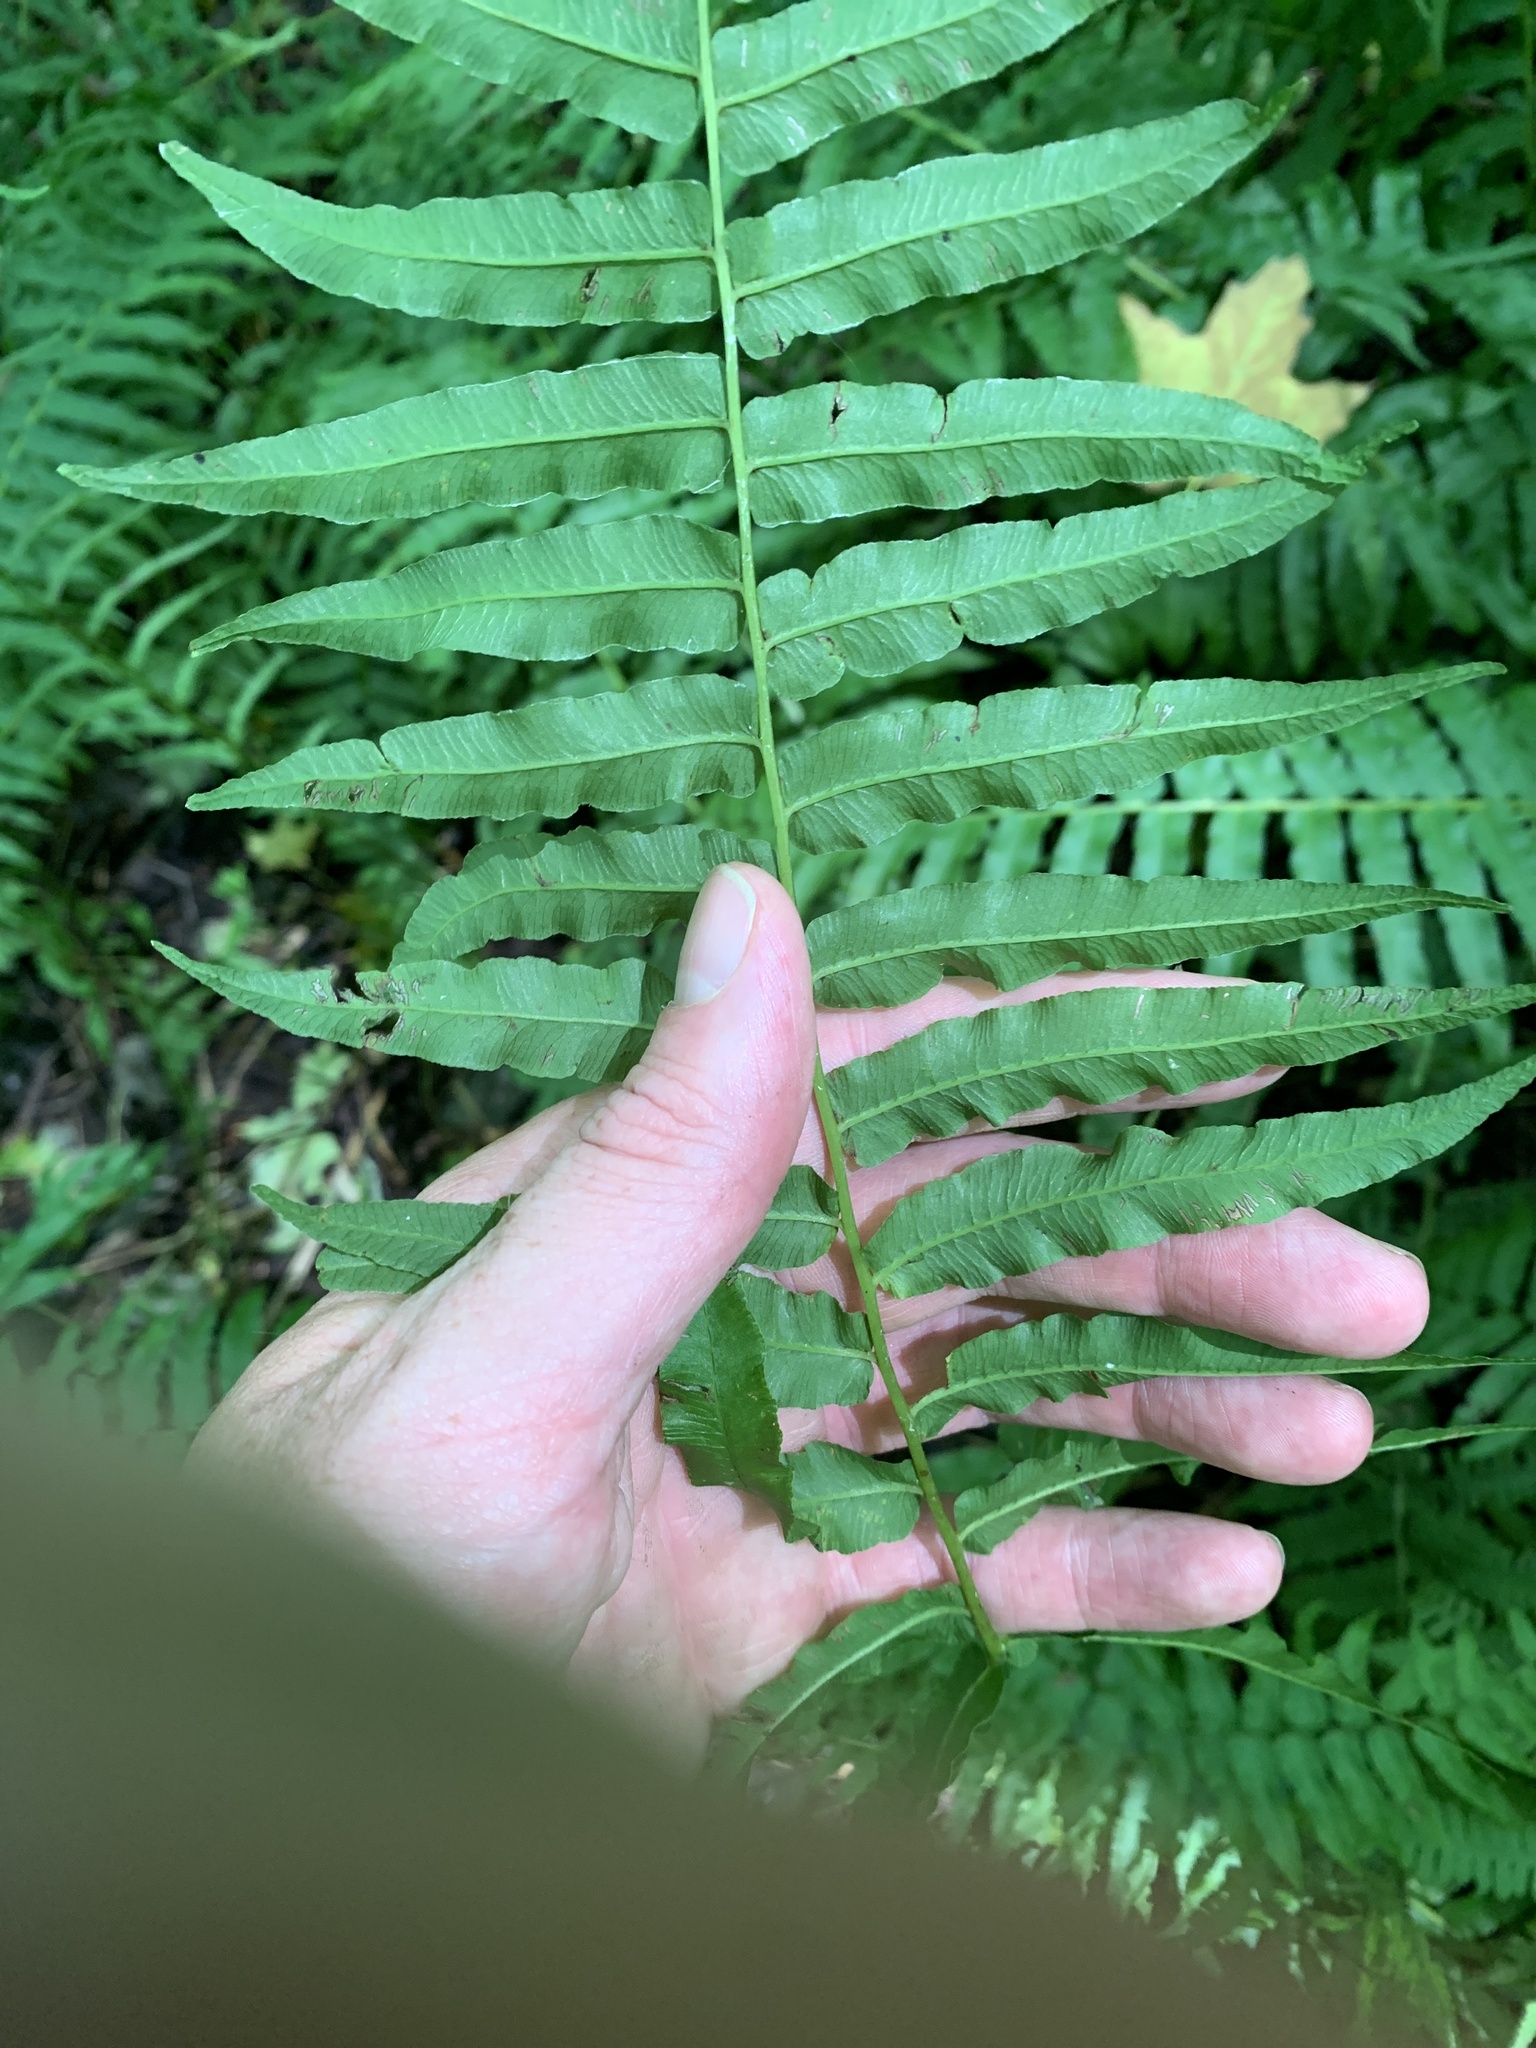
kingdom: Plantae
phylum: Tracheophyta
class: Polypodiopsida
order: Polypodiales
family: Diplaziopsidaceae
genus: Homalosorus
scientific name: Homalosorus pycnocarpos
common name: Glade fern
